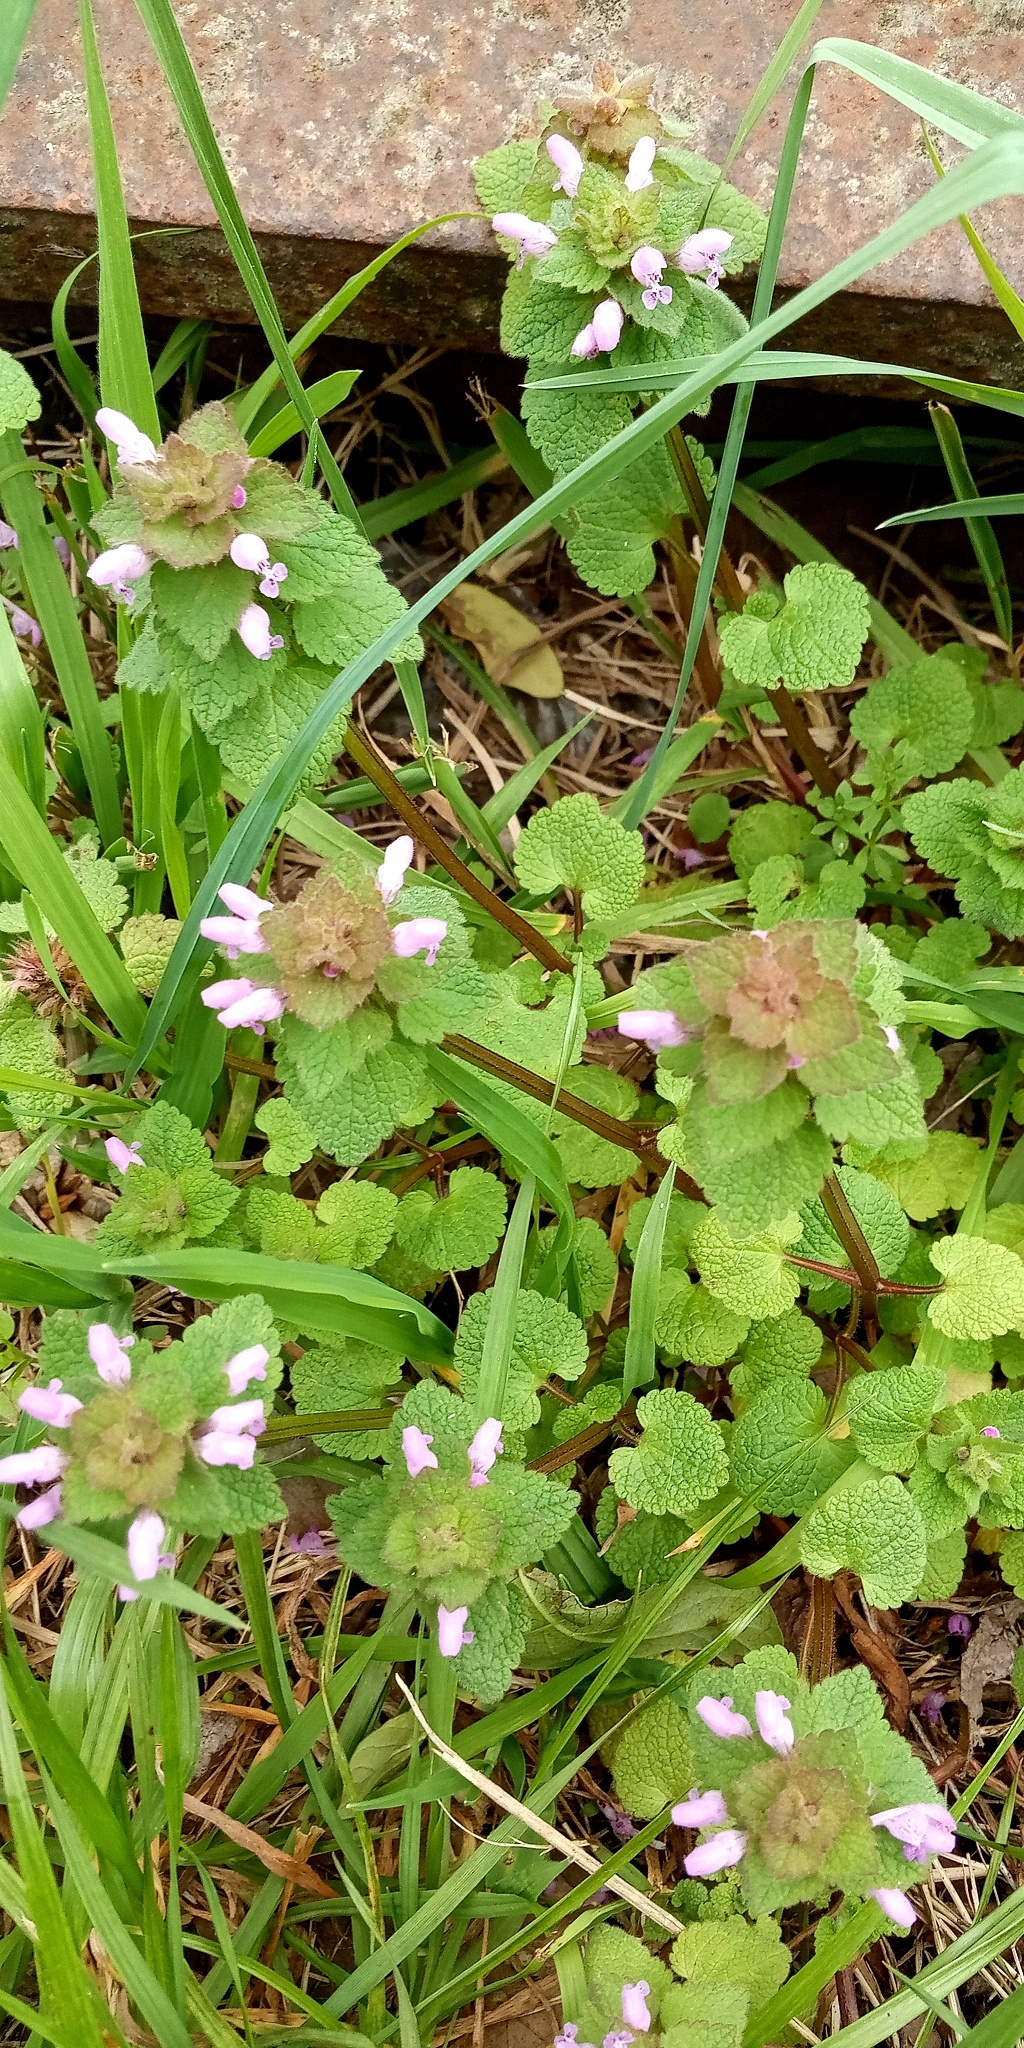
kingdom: Plantae
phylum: Tracheophyta
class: Magnoliopsida
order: Lamiales
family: Lamiaceae
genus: Lamium
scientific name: Lamium purpureum
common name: Red dead-nettle
